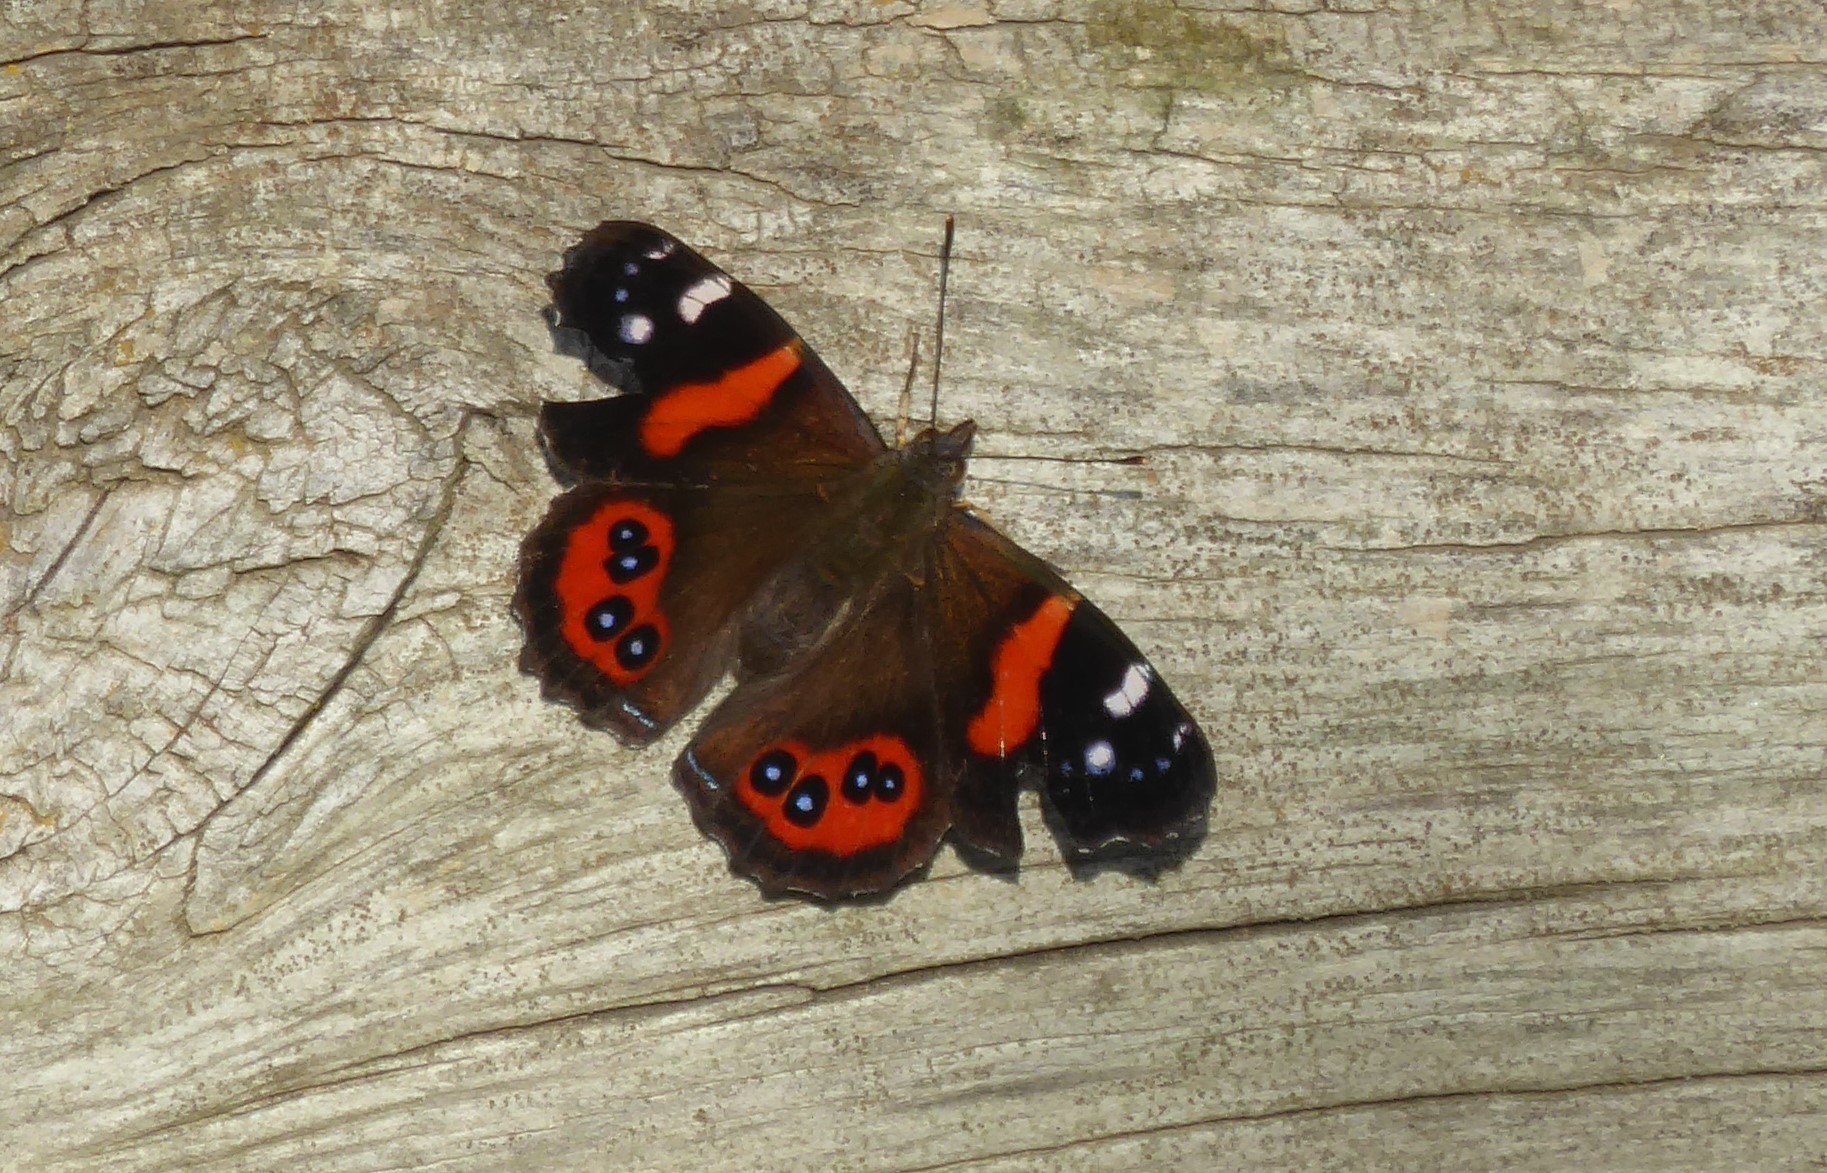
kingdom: Animalia
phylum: Arthropoda
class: Insecta
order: Lepidoptera
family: Nymphalidae
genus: Vanessa
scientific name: Vanessa gonerilla
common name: New zealand red admiral
